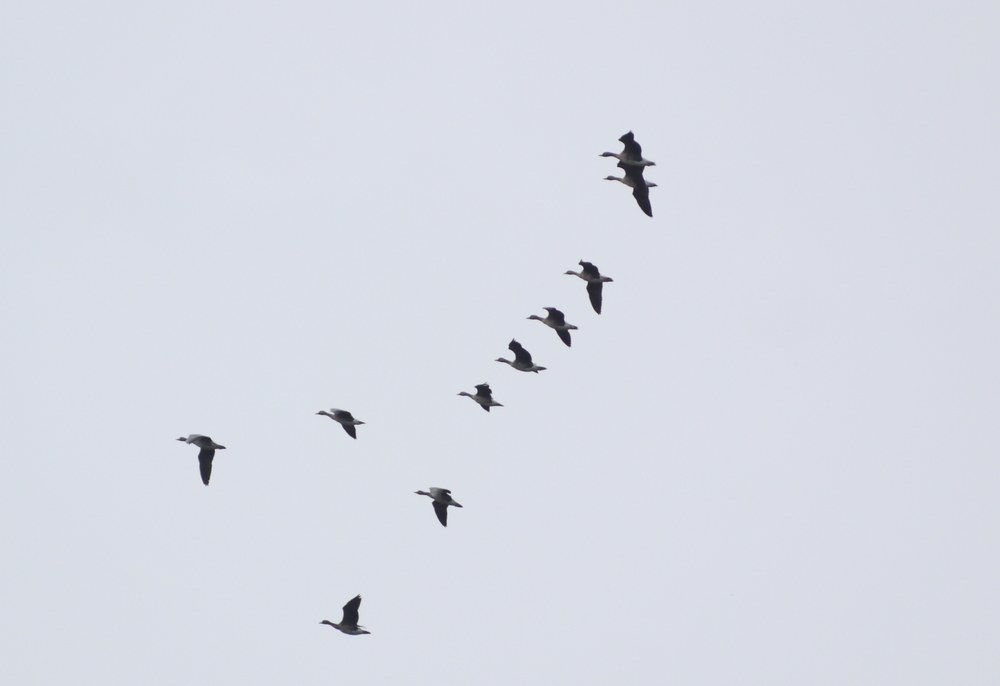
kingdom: Animalia
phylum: Chordata
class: Aves
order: Anseriformes
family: Anatidae
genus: Anser
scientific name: Anser albifrons
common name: Greater white-fronted goose
